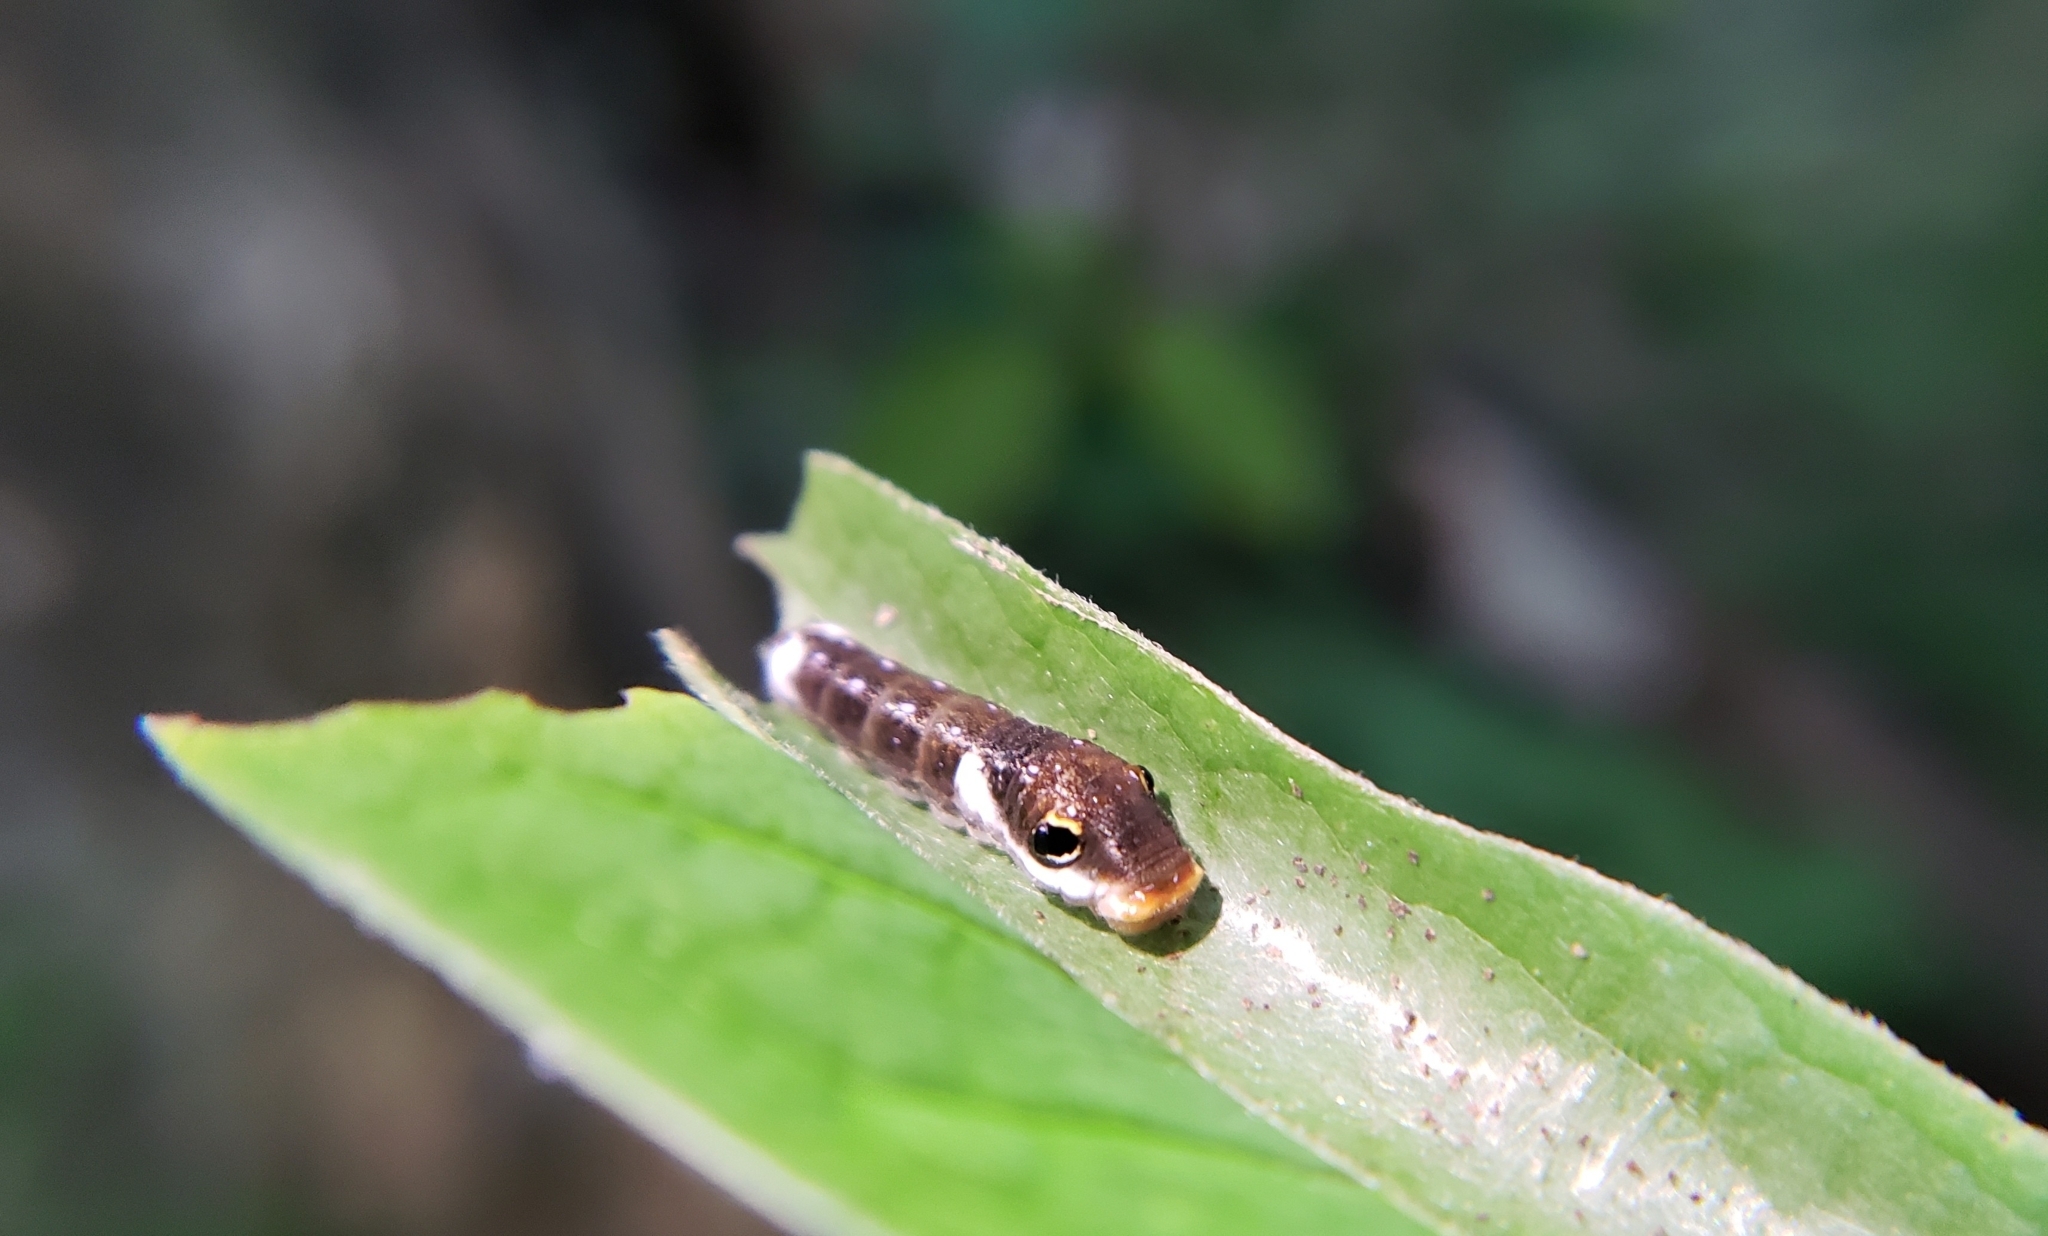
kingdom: Animalia
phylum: Arthropoda
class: Insecta
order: Lepidoptera
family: Papilionidae
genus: Papilio
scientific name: Papilio troilus
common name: Spicebush swallowtail
